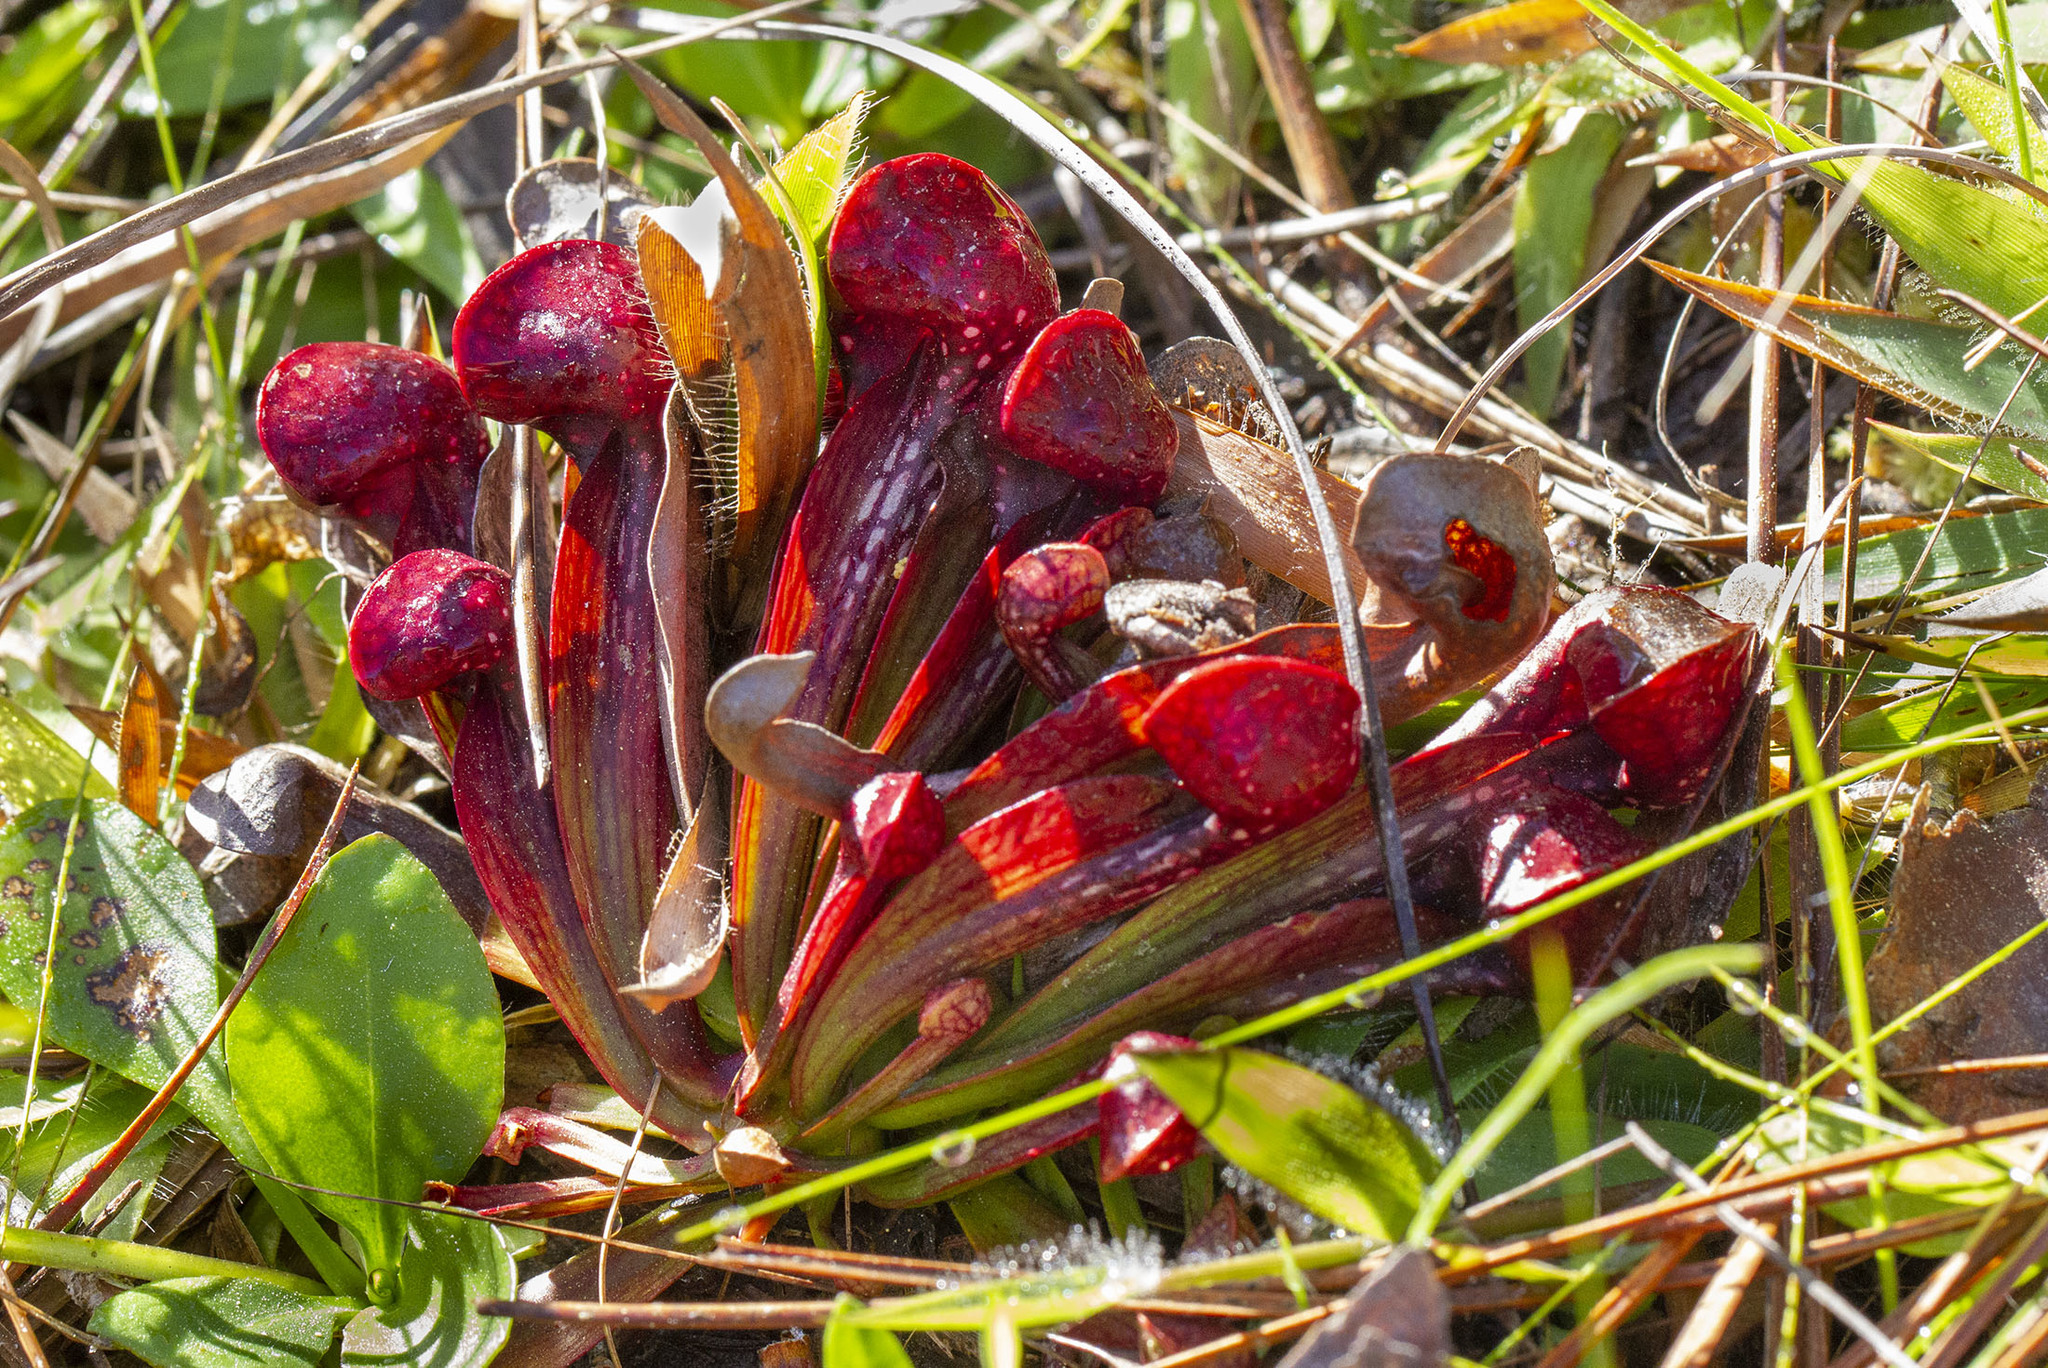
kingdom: Plantae
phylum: Tracheophyta
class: Magnoliopsida
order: Ericales
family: Sarraceniaceae
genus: Sarracenia
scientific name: Sarracenia psittacina
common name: Parrot pitcherplant
